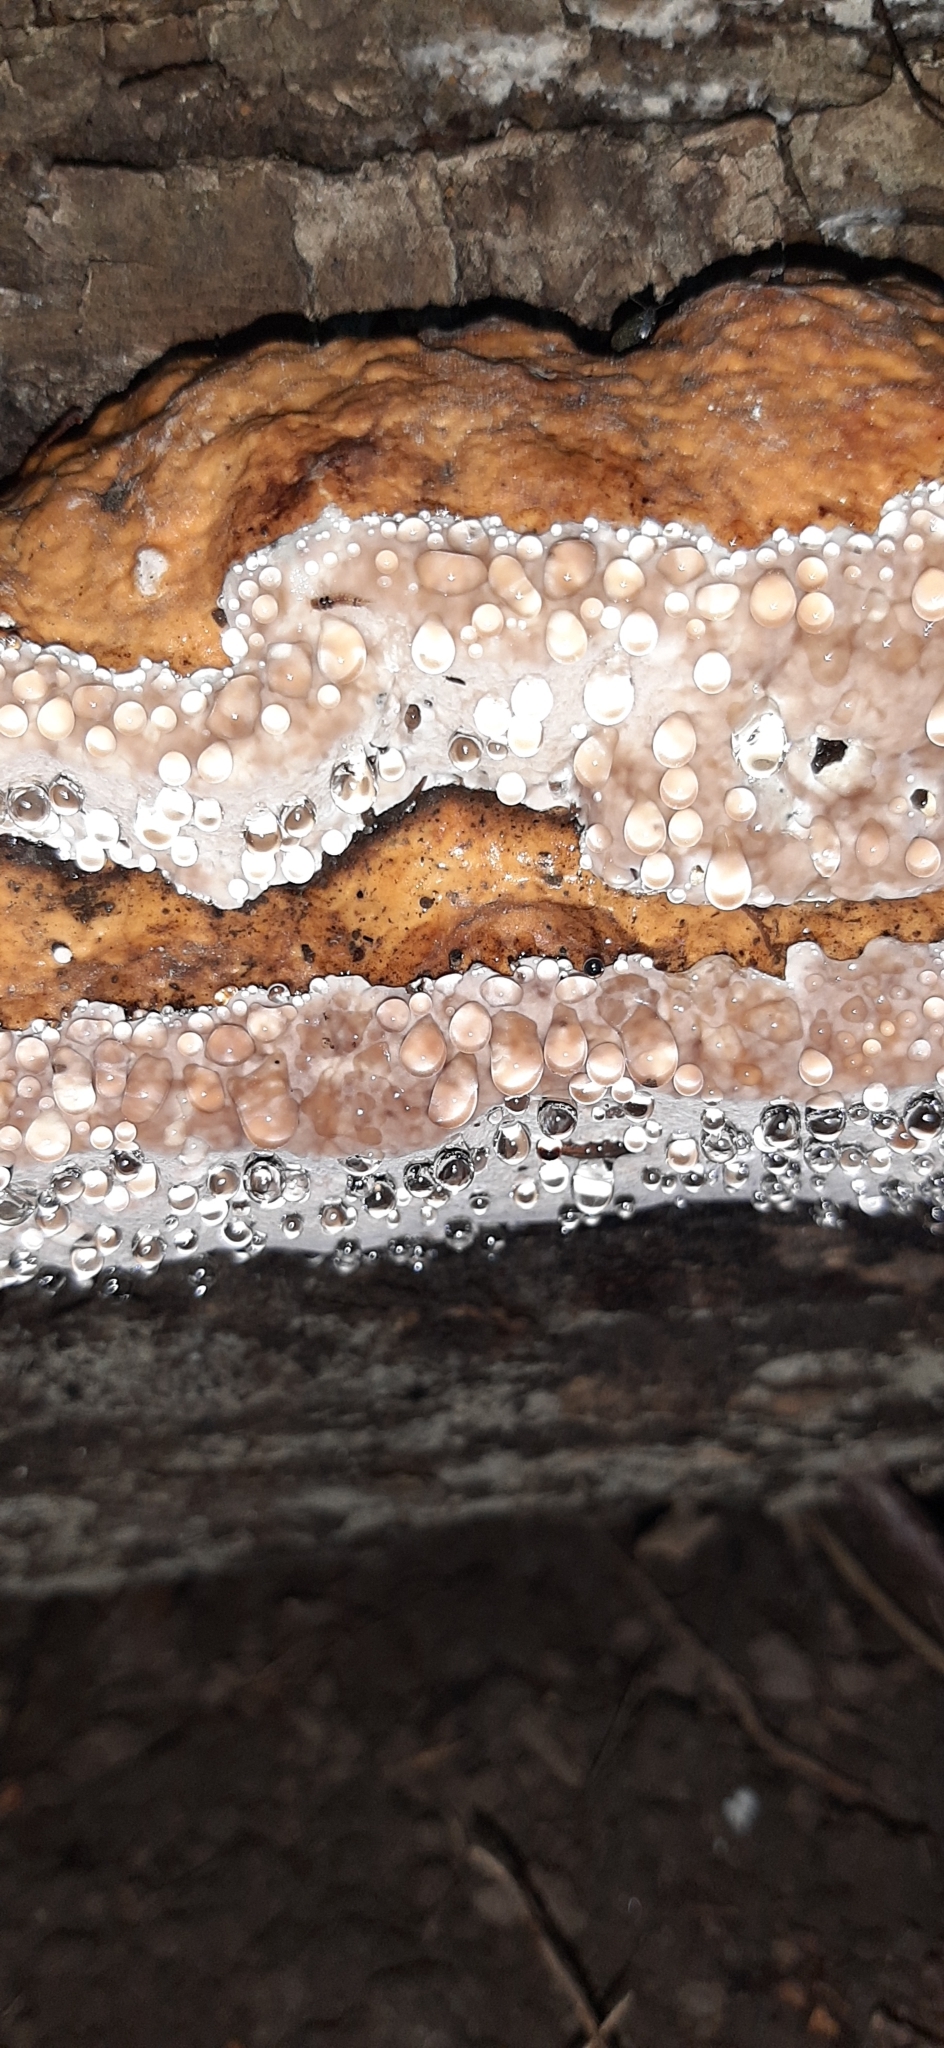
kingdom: Fungi
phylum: Basidiomycota
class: Agaricomycetes
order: Polyporales
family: Fomitopsidaceae
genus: Fomitopsis
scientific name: Fomitopsis pinicola
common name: Red-belted bracket
